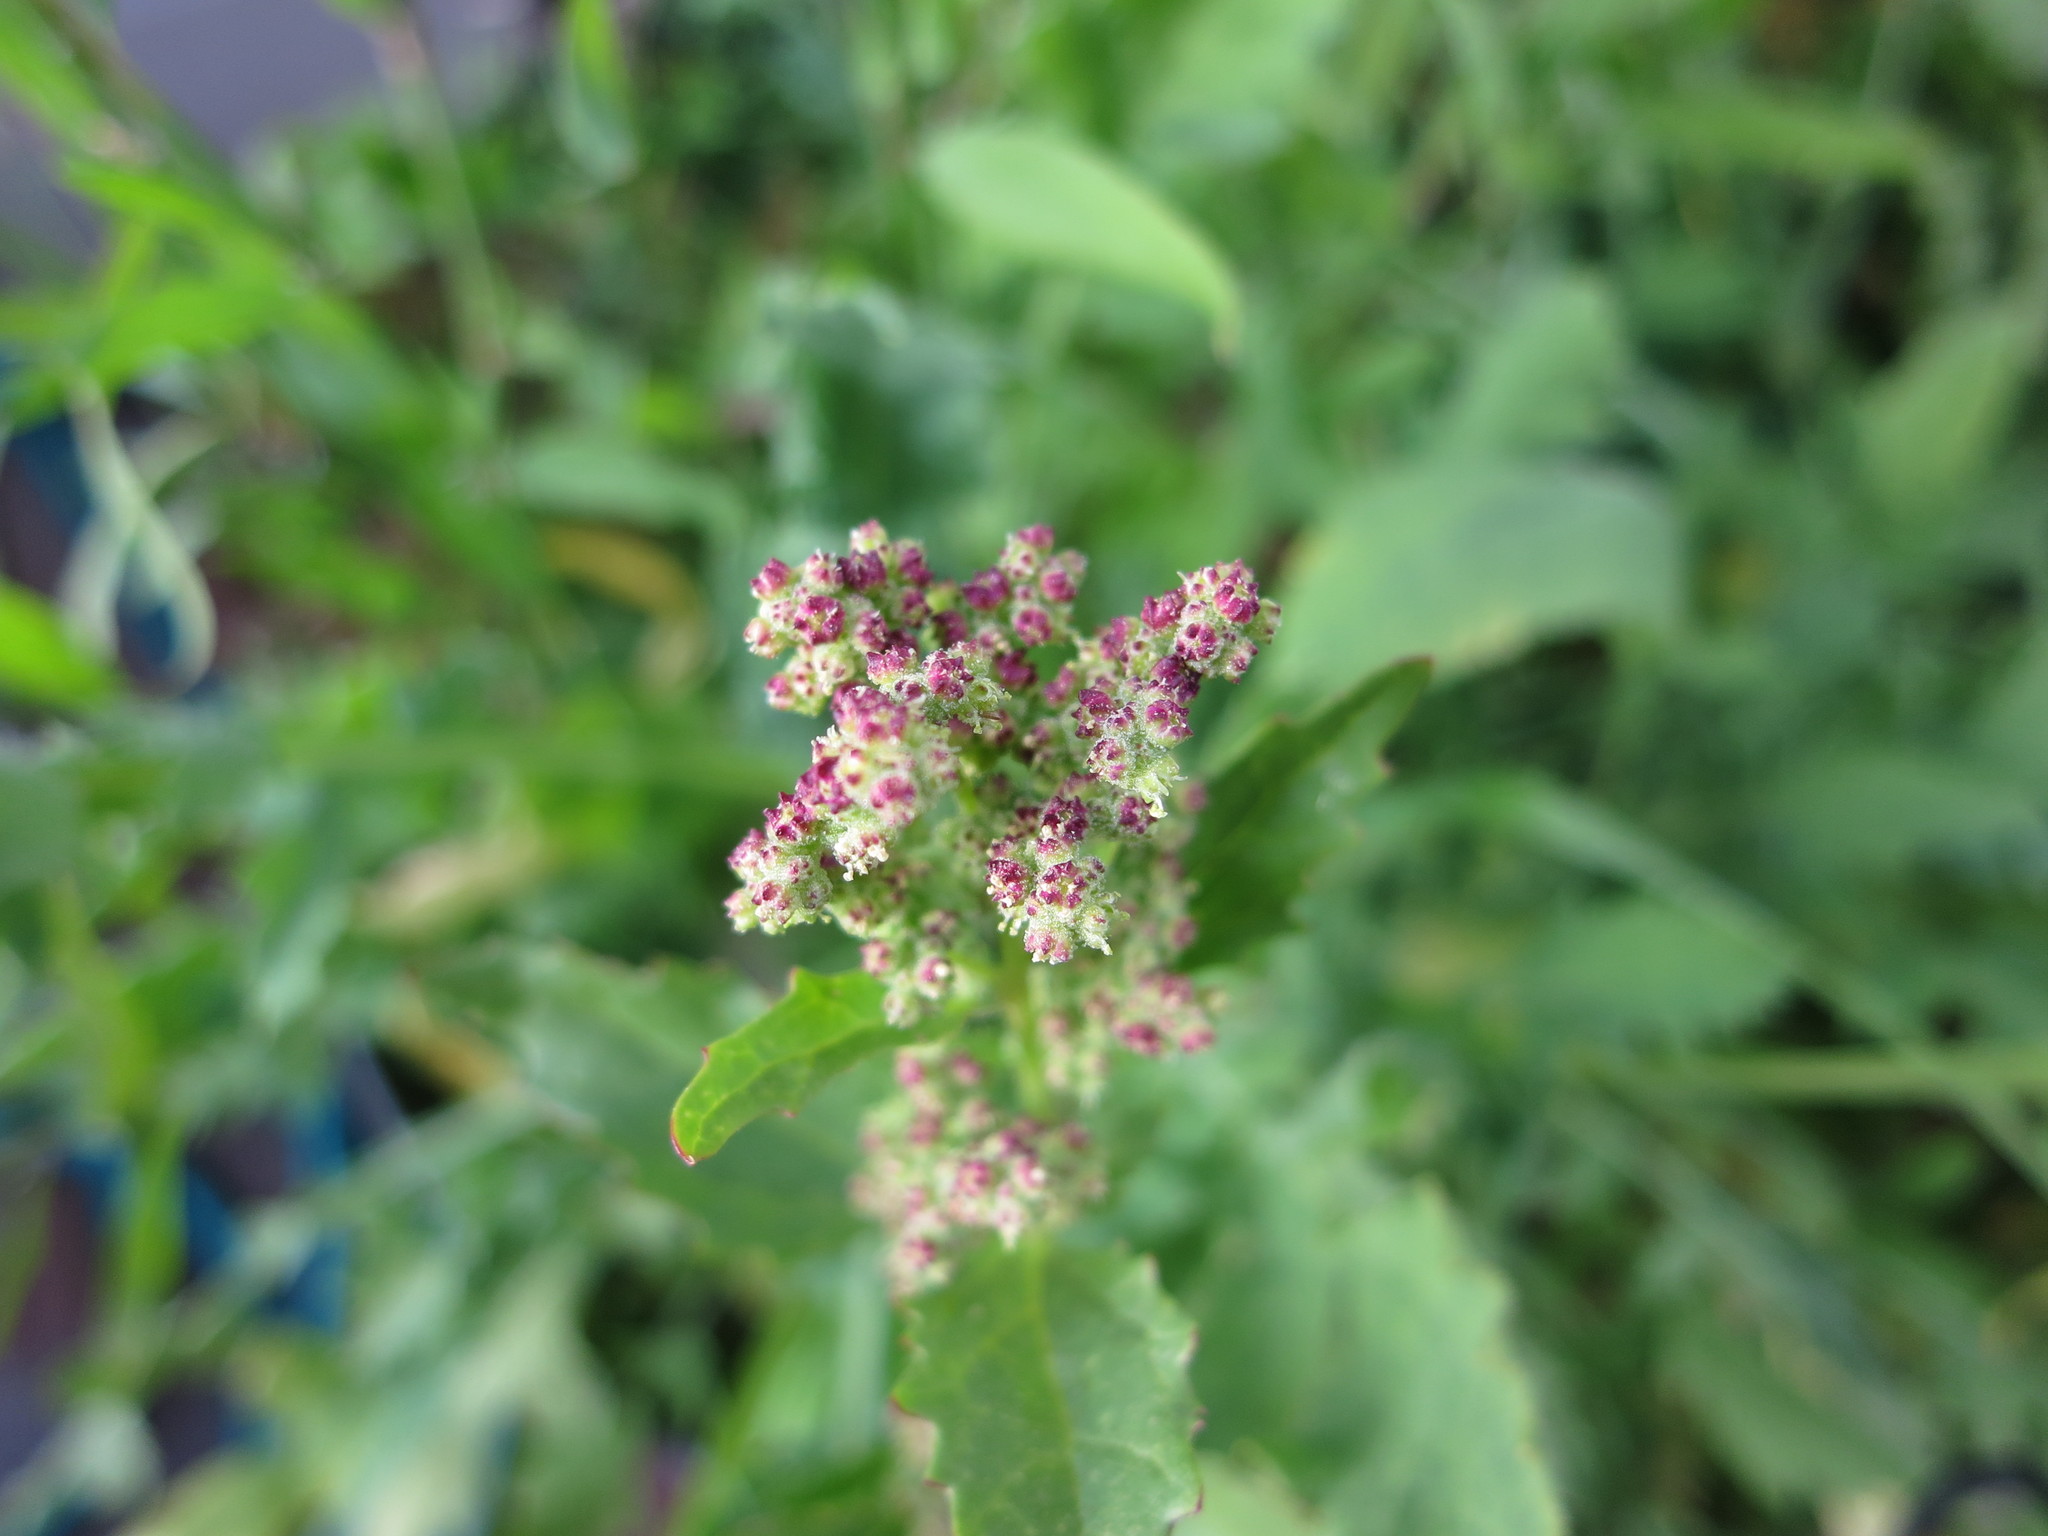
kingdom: Plantae
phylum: Tracheophyta
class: Magnoliopsida
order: Caryophyllales
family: Amaranthaceae
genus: Chenopodiastrum
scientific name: Chenopodiastrum murale
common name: Sowbane
